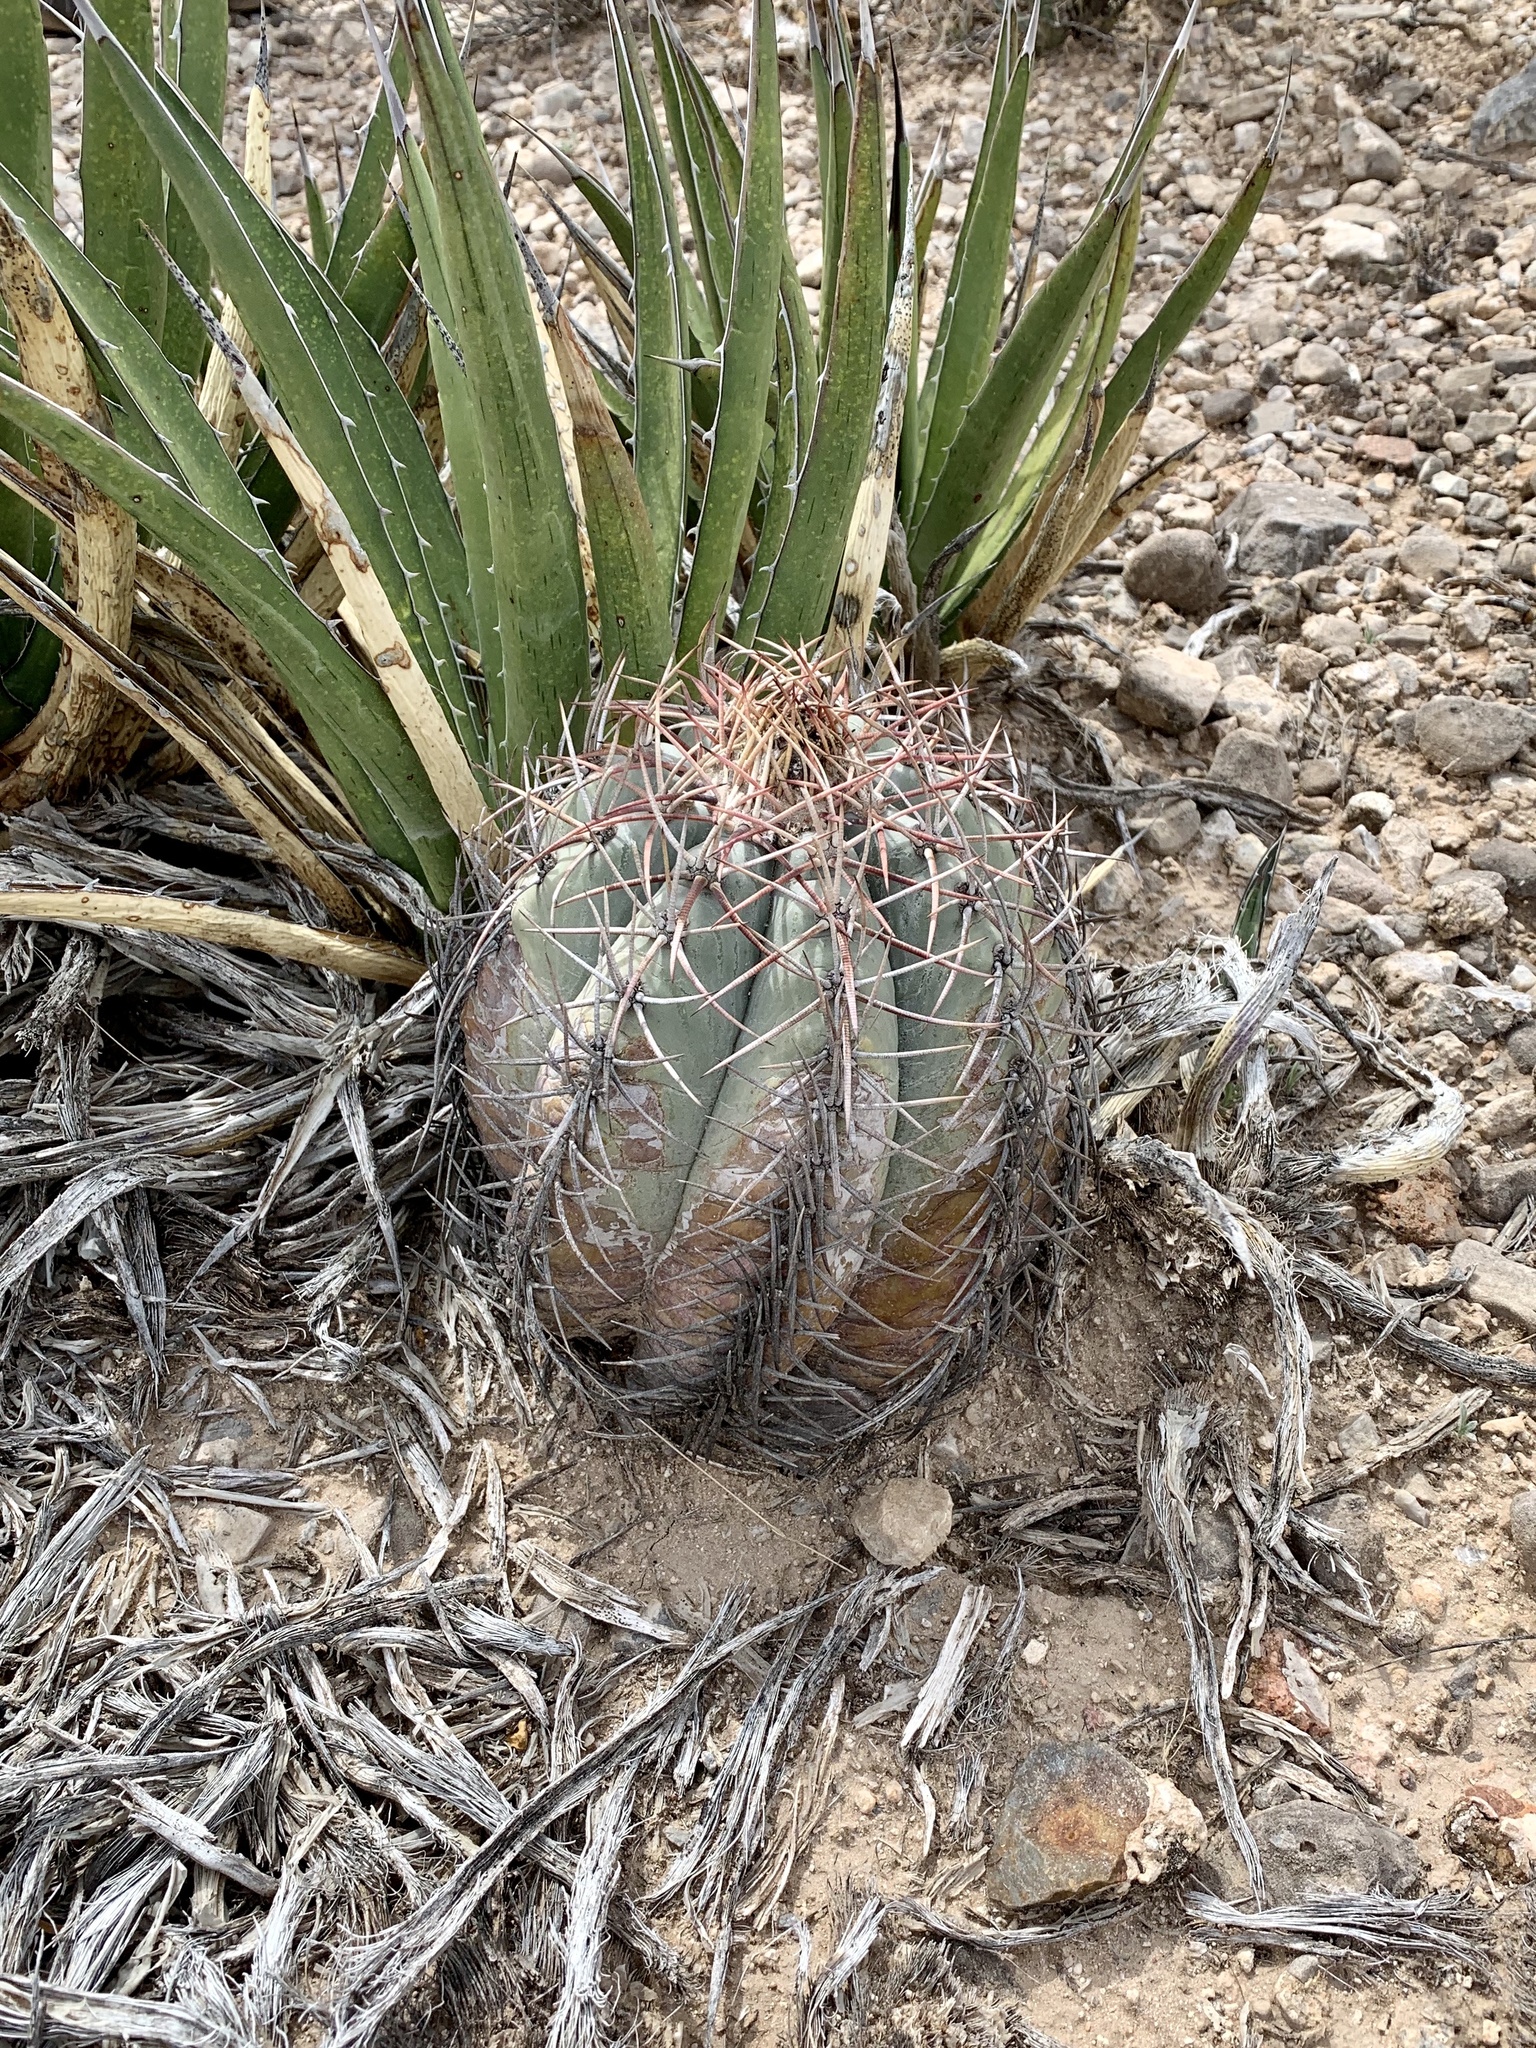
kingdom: Plantae
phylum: Tracheophyta
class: Magnoliopsida
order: Caryophyllales
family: Cactaceae
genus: Echinocactus
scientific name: Echinocactus horizonthalonius
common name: Devilshead
